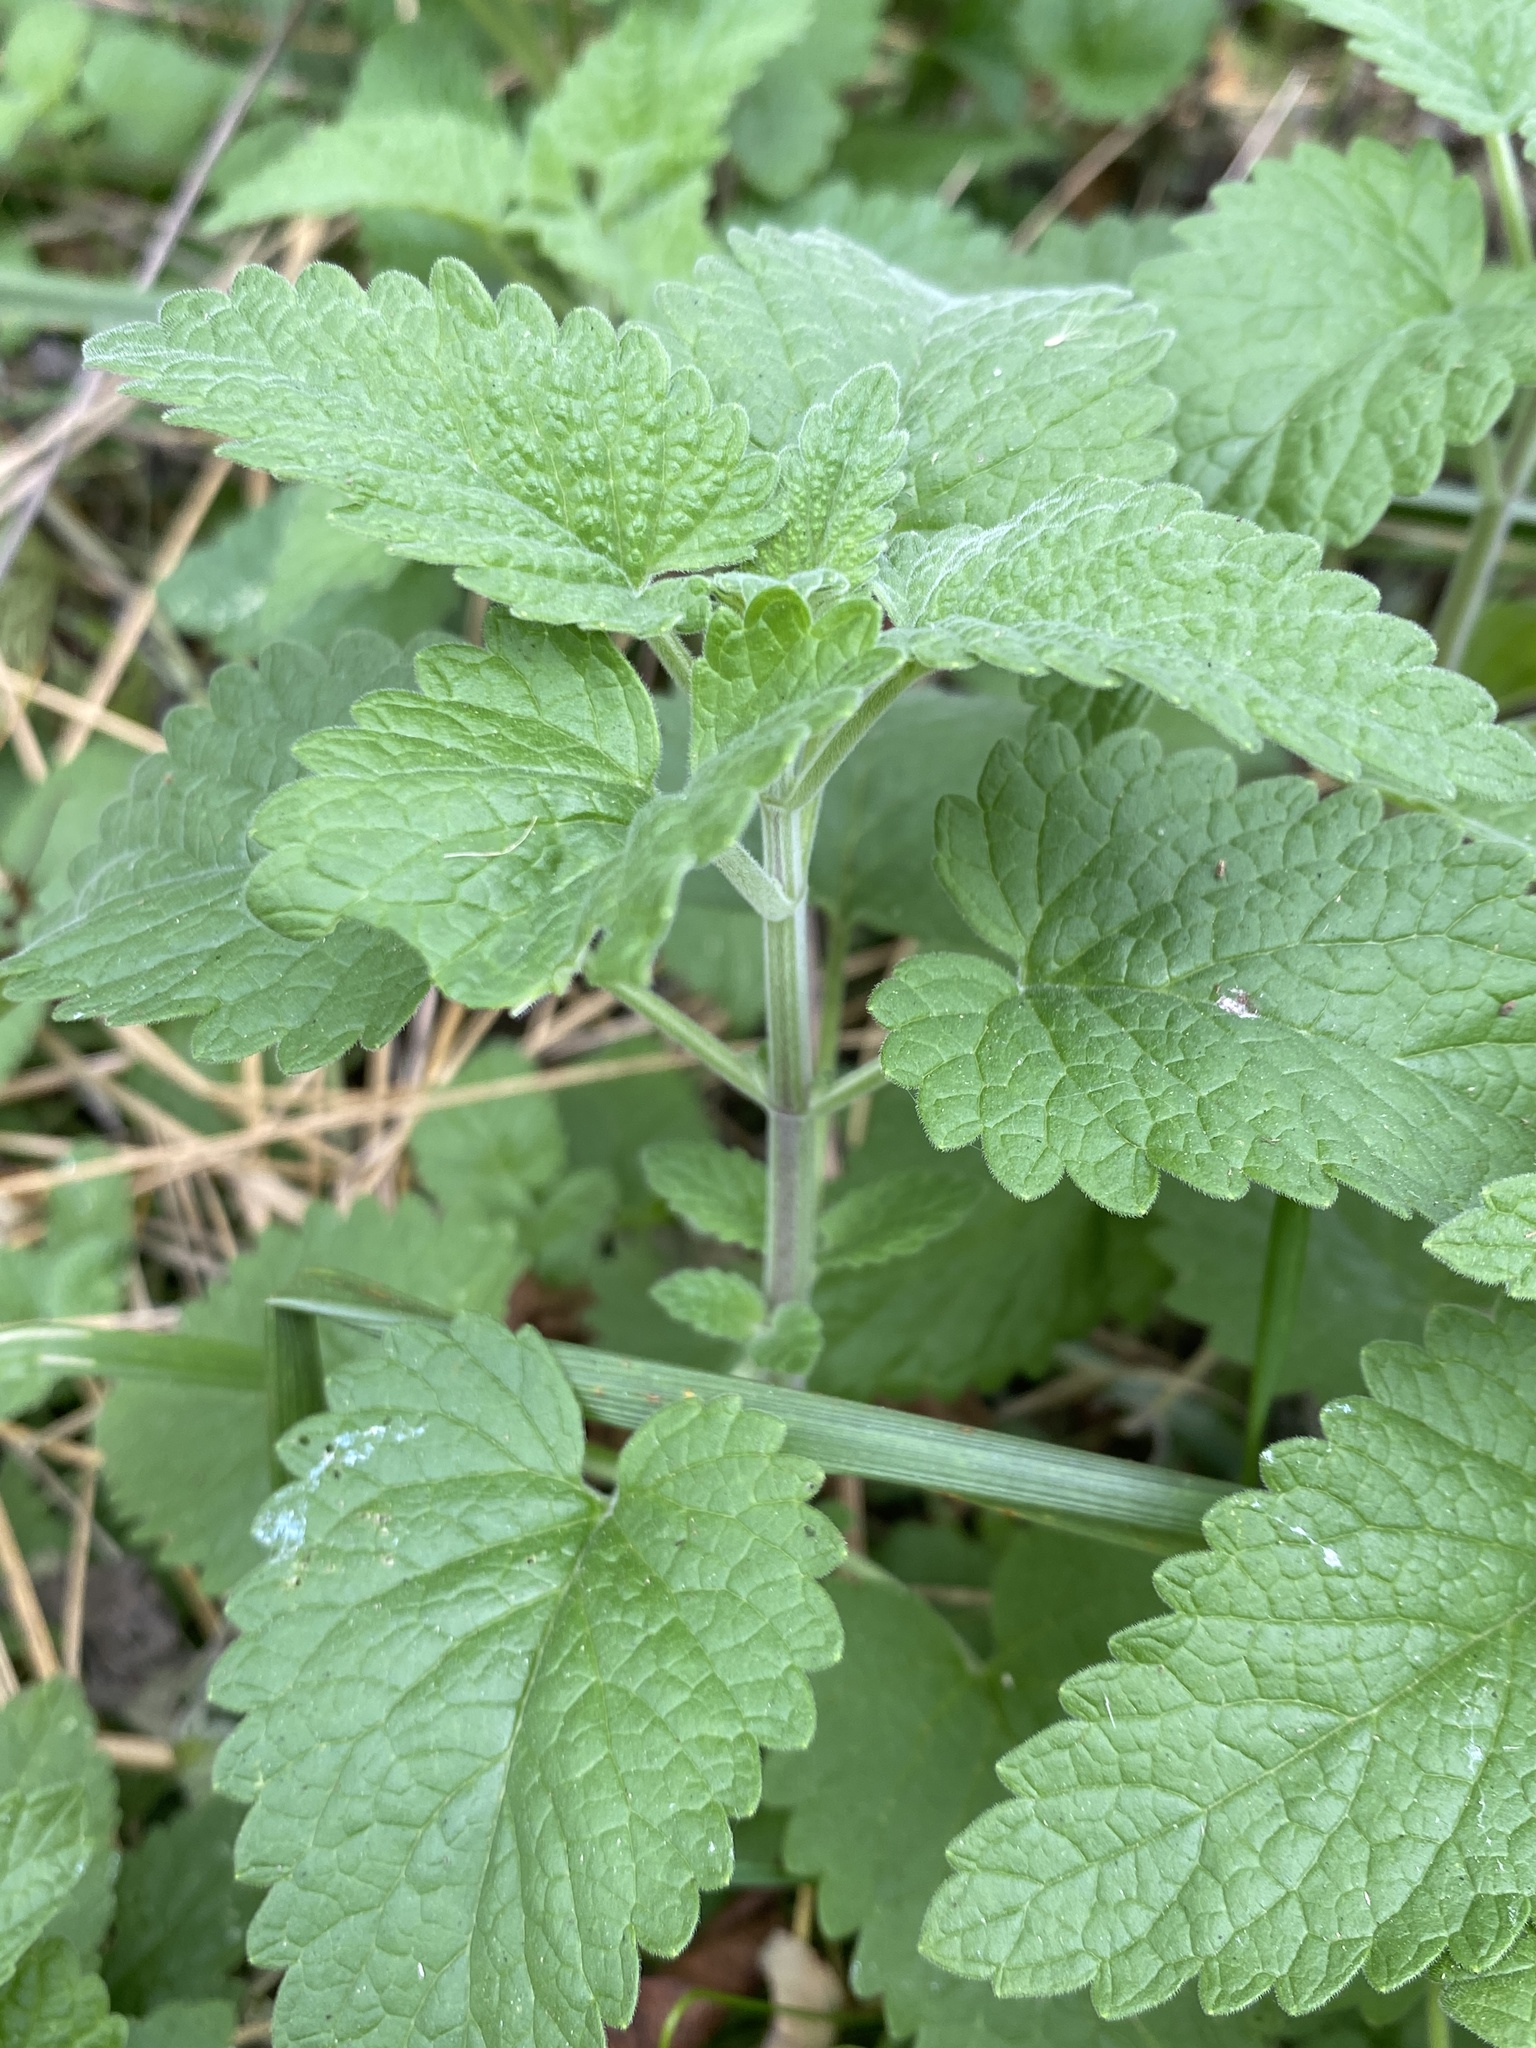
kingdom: Plantae
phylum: Tracheophyta
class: Magnoliopsida
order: Lamiales
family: Lamiaceae
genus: Nepeta
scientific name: Nepeta cataria
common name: Catnip
